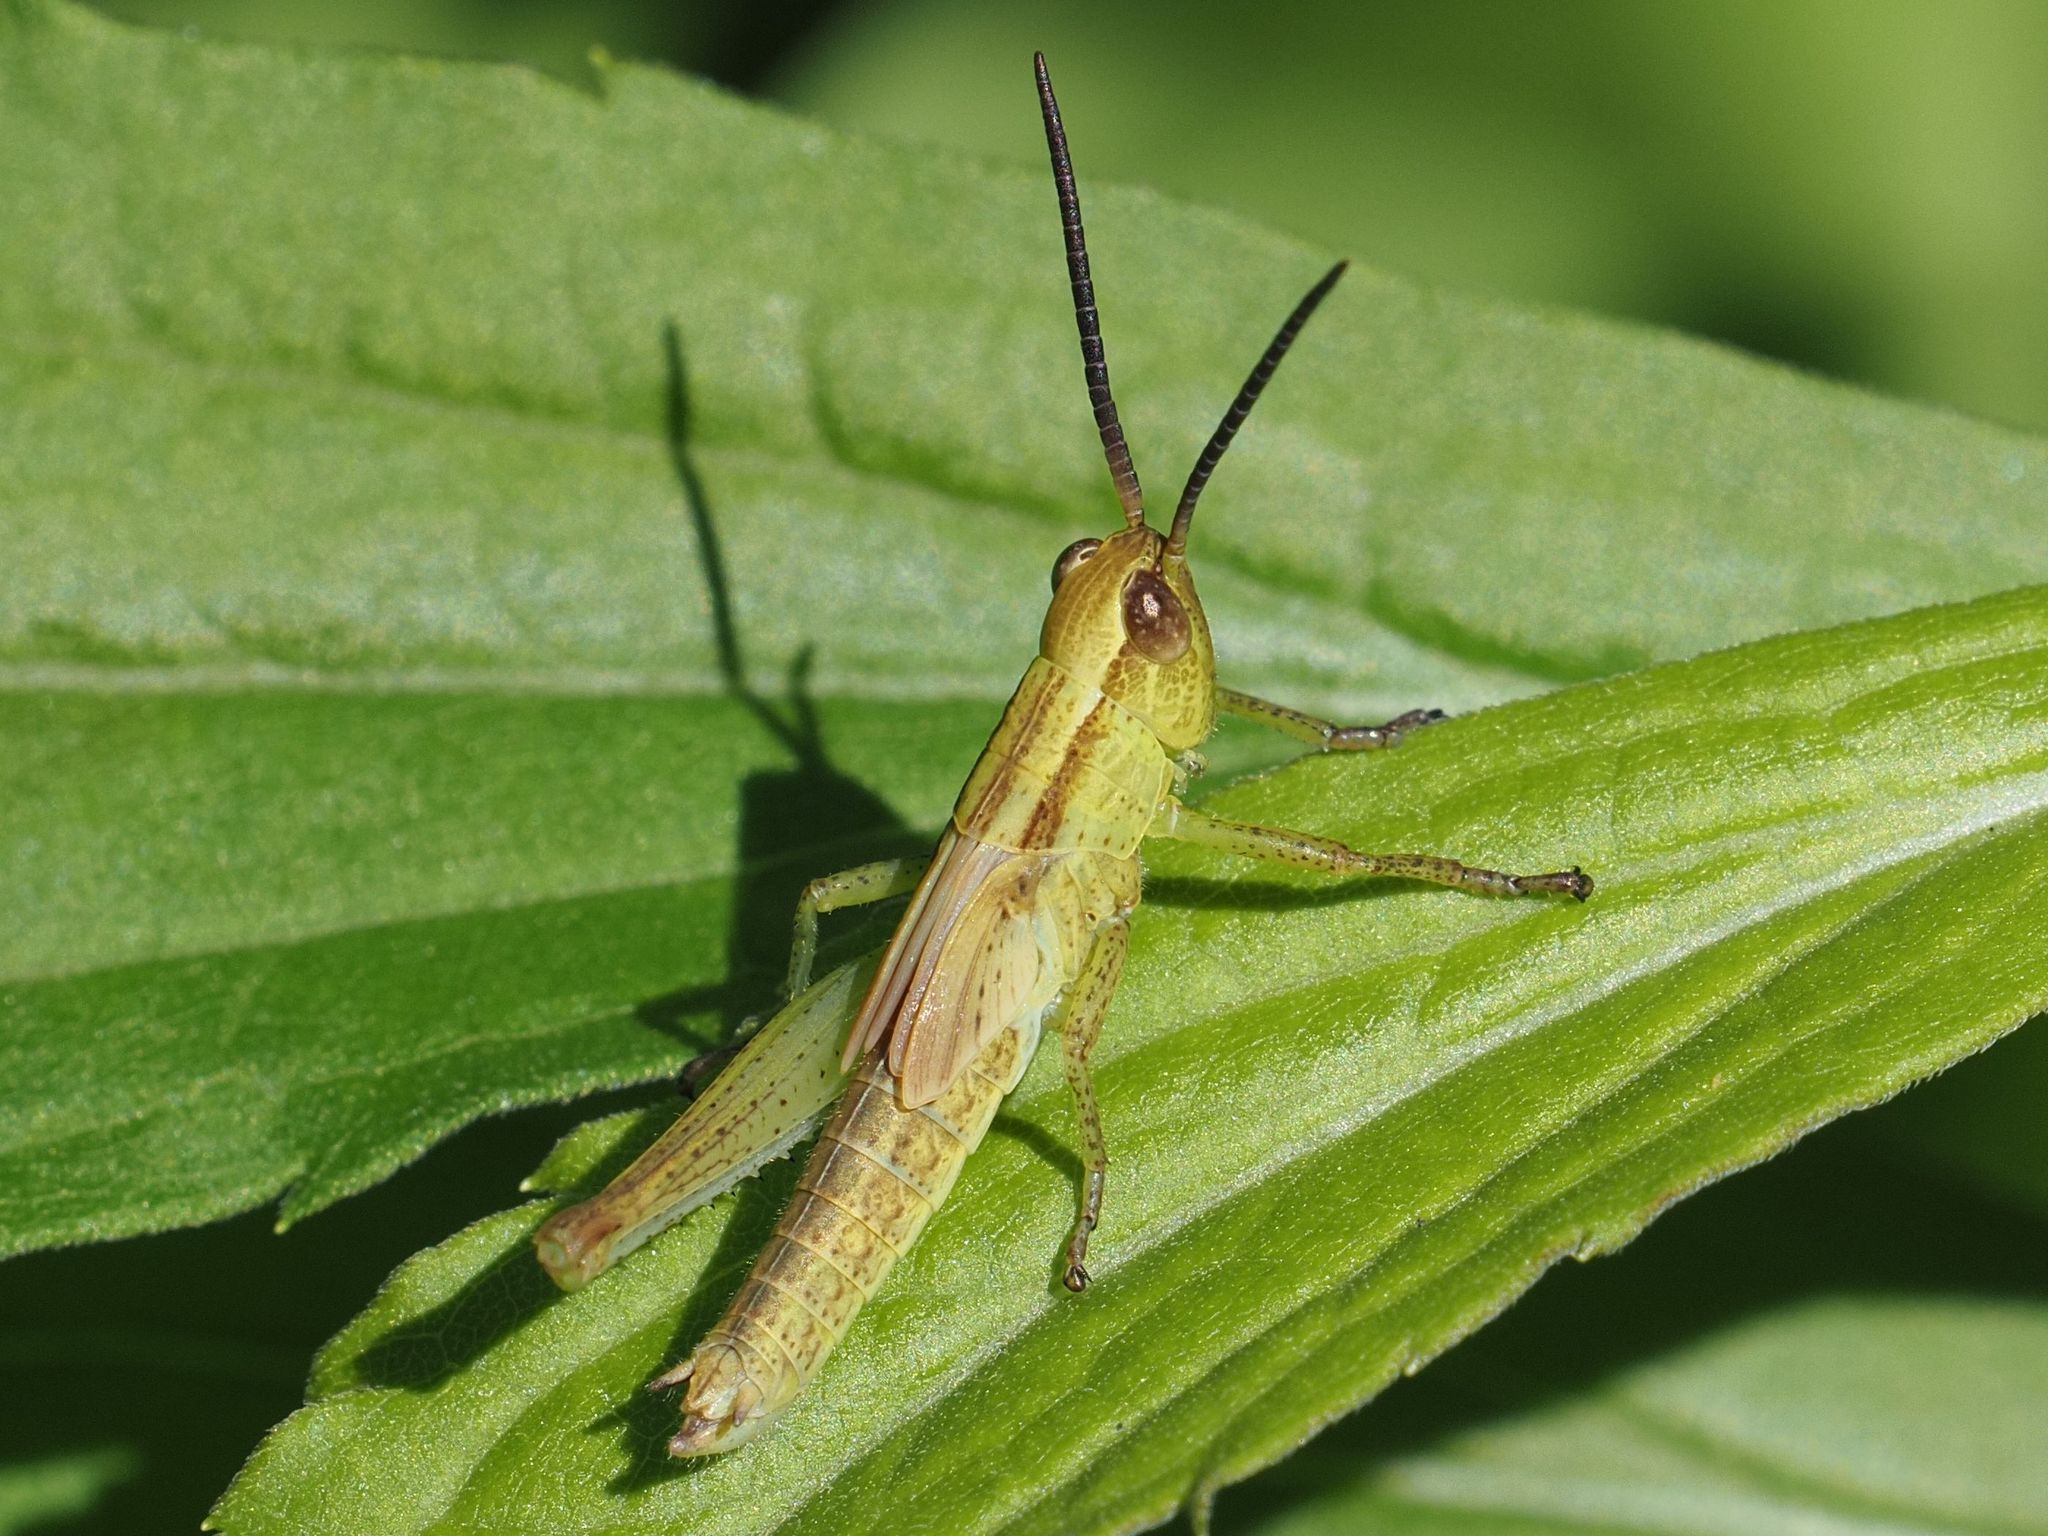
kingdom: Animalia
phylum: Arthropoda
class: Insecta
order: Orthoptera
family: Acrididae
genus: Mecostethus
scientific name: Mecostethus parapleurus
